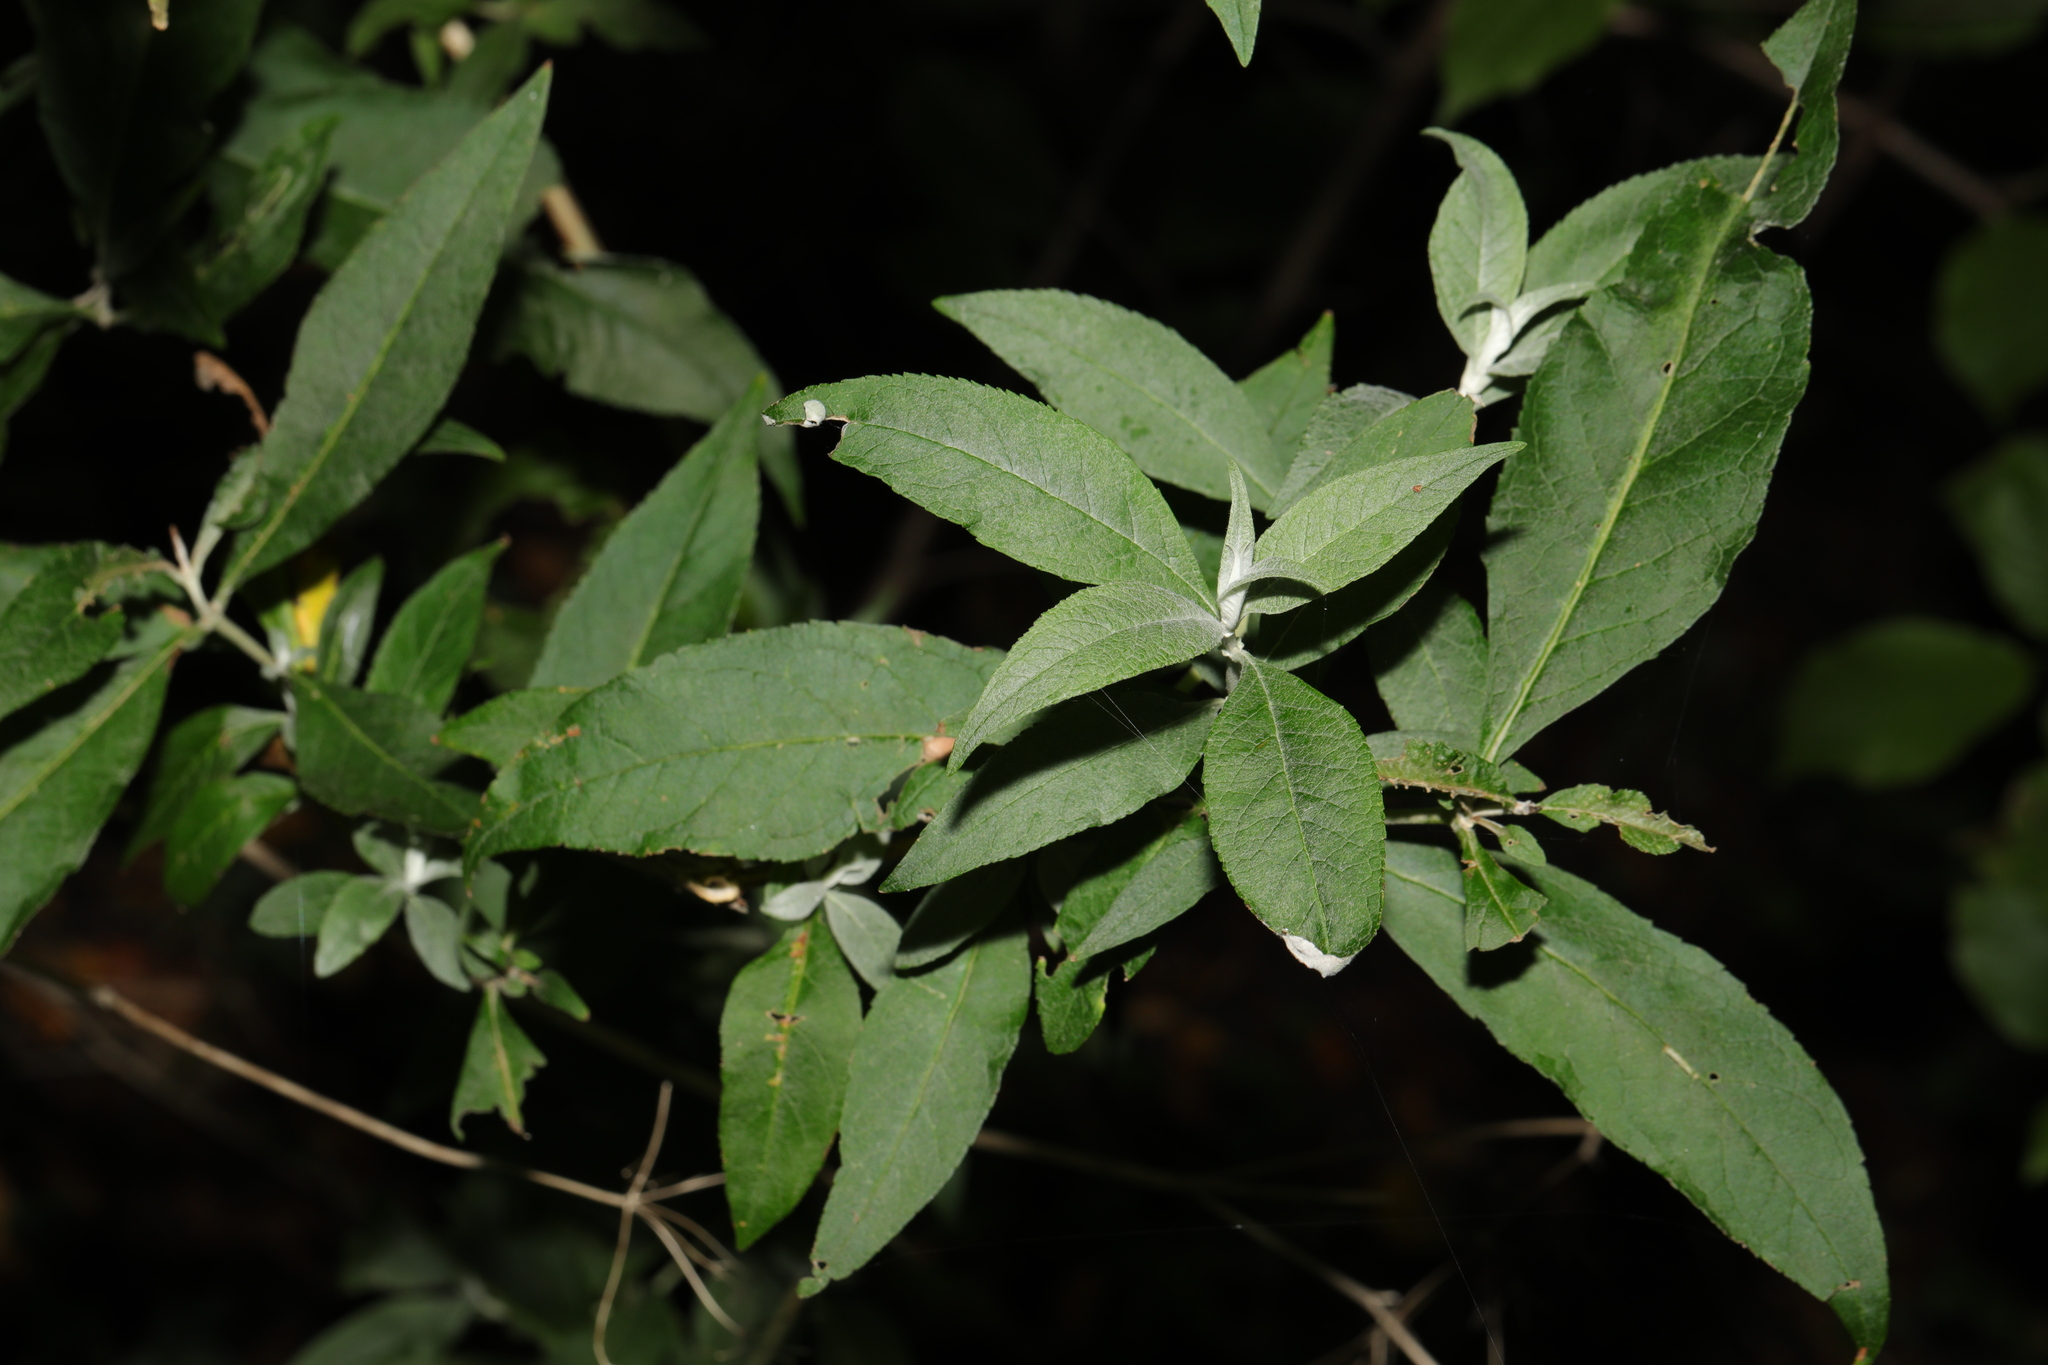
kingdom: Plantae
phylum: Tracheophyta
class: Magnoliopsida
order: Lamiales
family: Scrophulariaceae
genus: Buddleja
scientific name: Buddleja davidii
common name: Butterfly-bush
